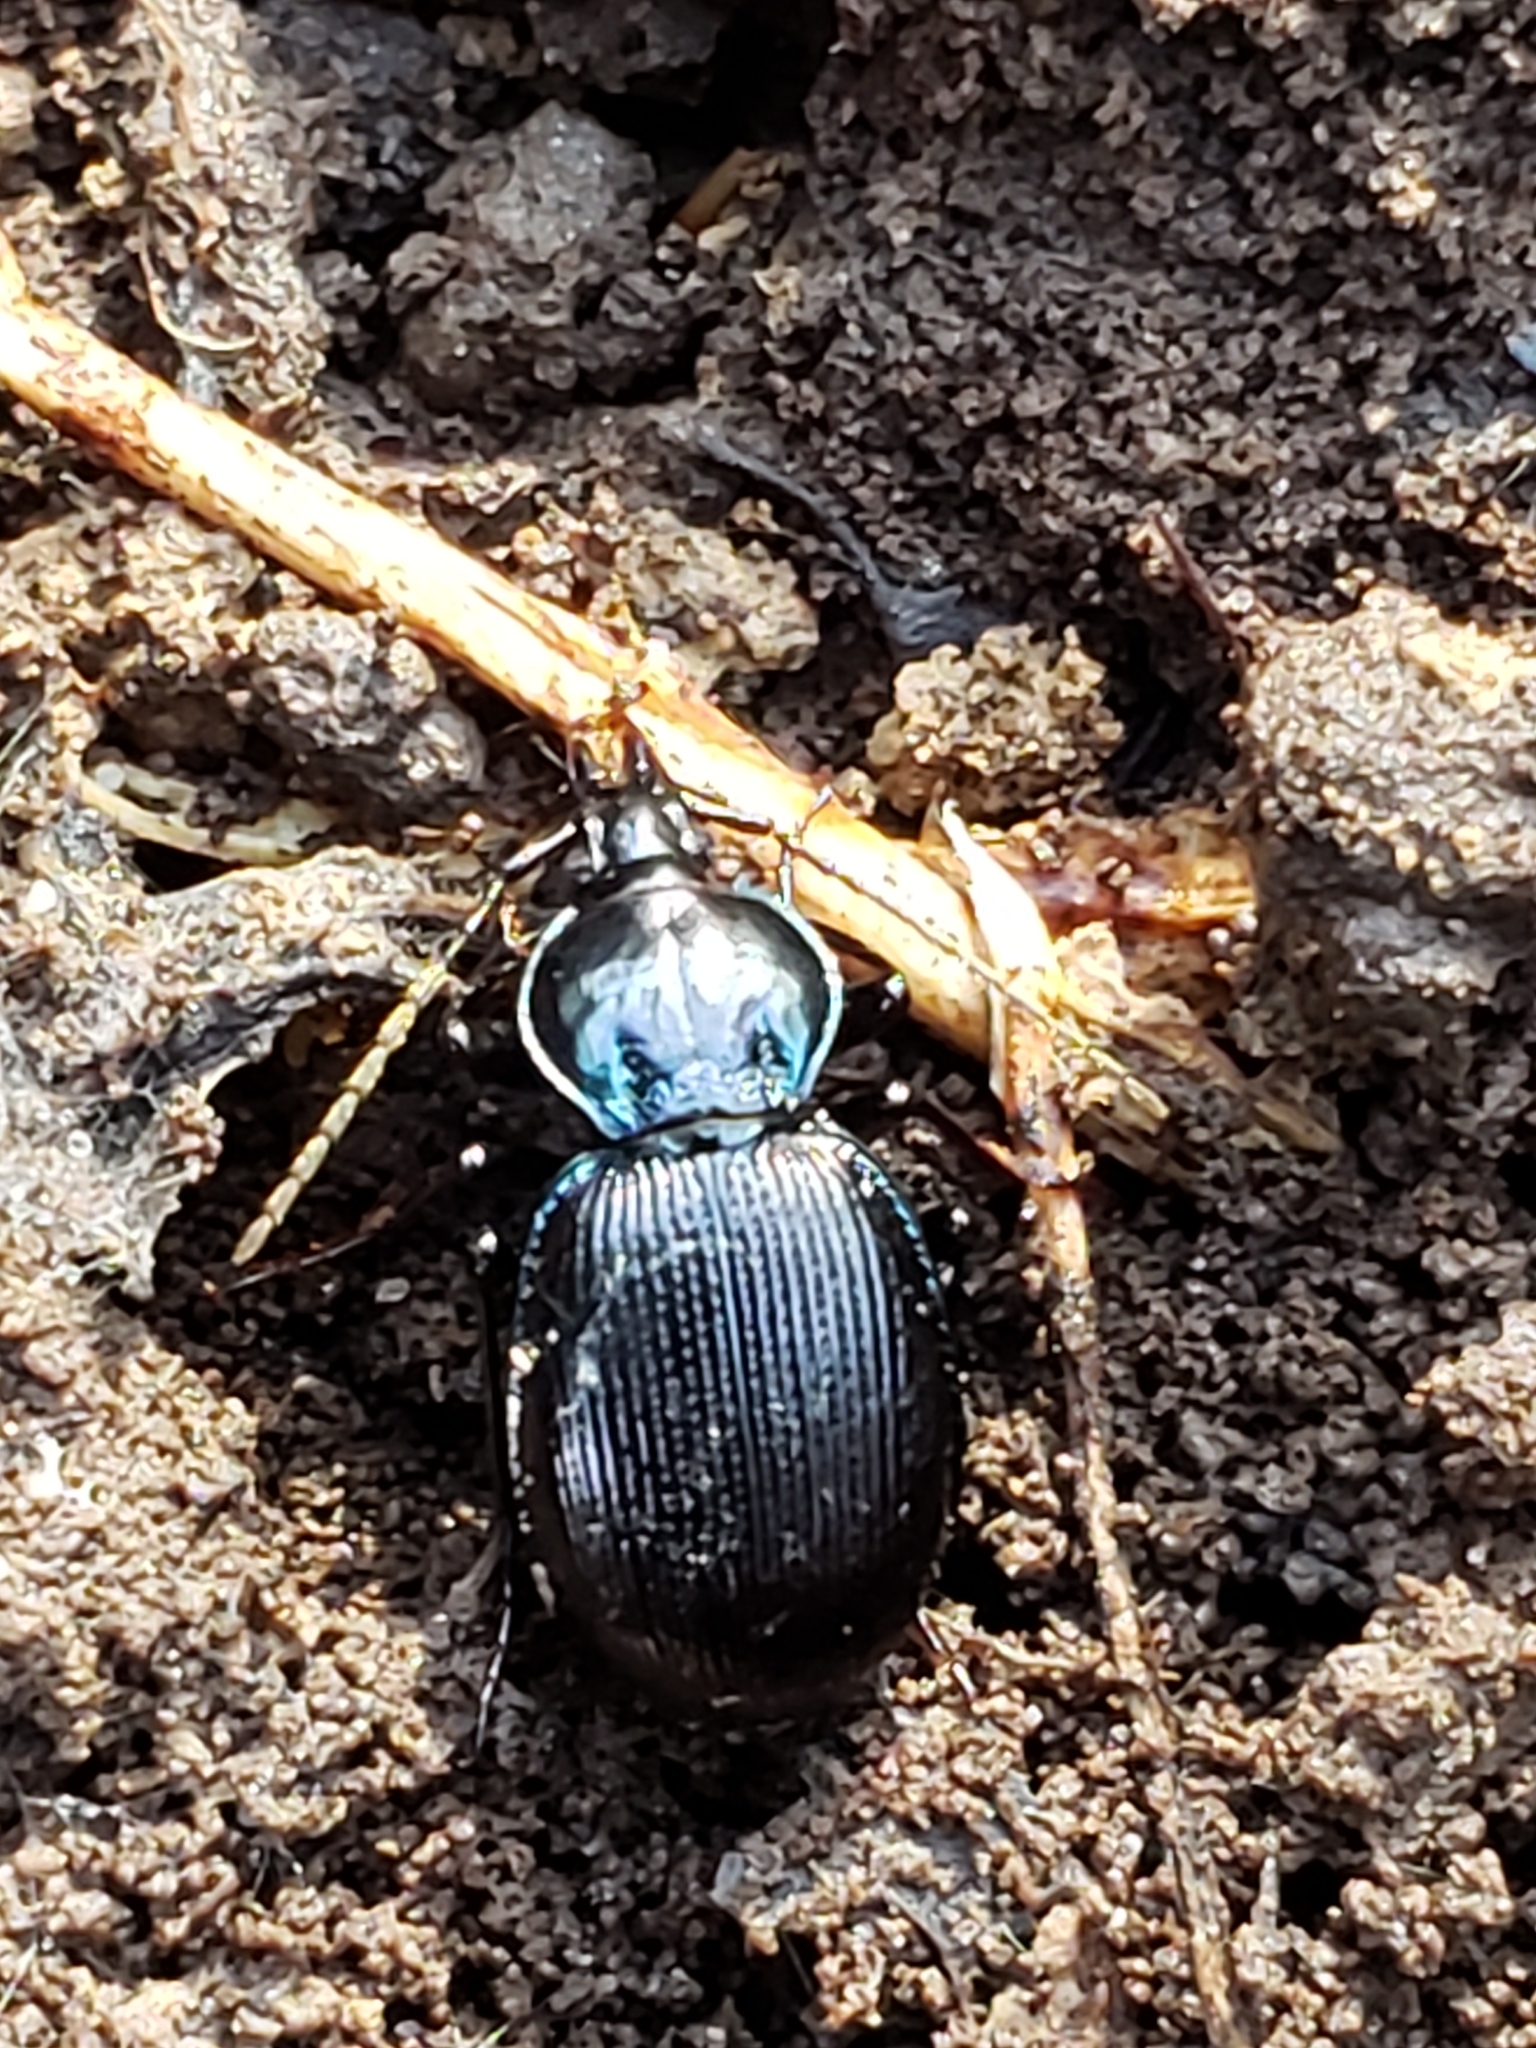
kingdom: Animalia
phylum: Arthropoda
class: Insecta
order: Coleoptera
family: Carabidae
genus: Sphaeroderus
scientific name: Sphaeroderus stenostomus
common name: Small snail-eating ground beetle
